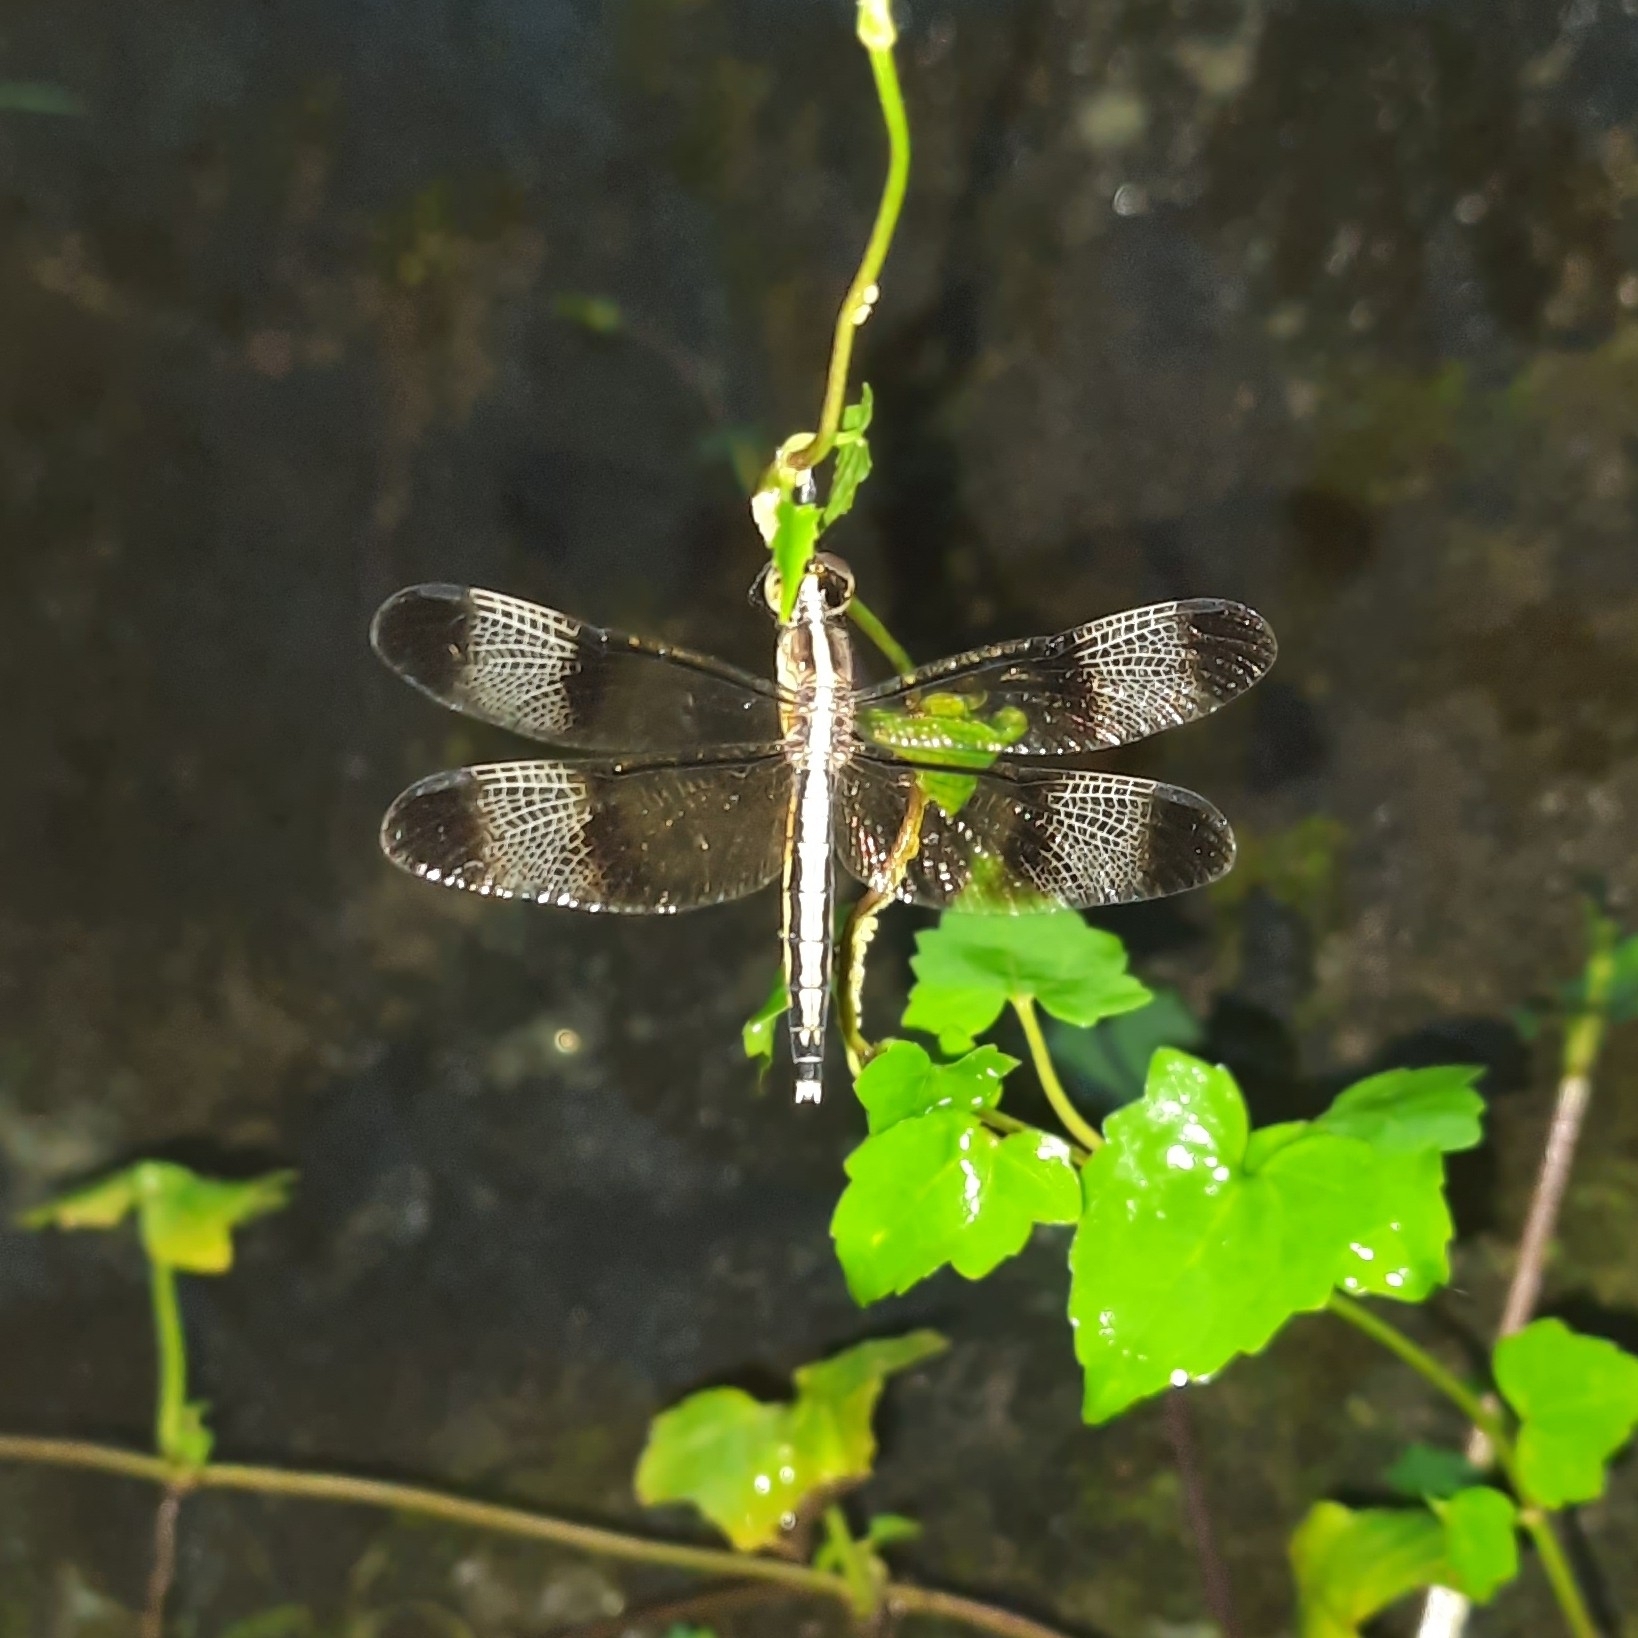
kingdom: Animalia
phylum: Arthropoda
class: Insecta
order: Odonata
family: Libellulidae
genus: Neurothemis
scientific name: Neurothemis tullia
